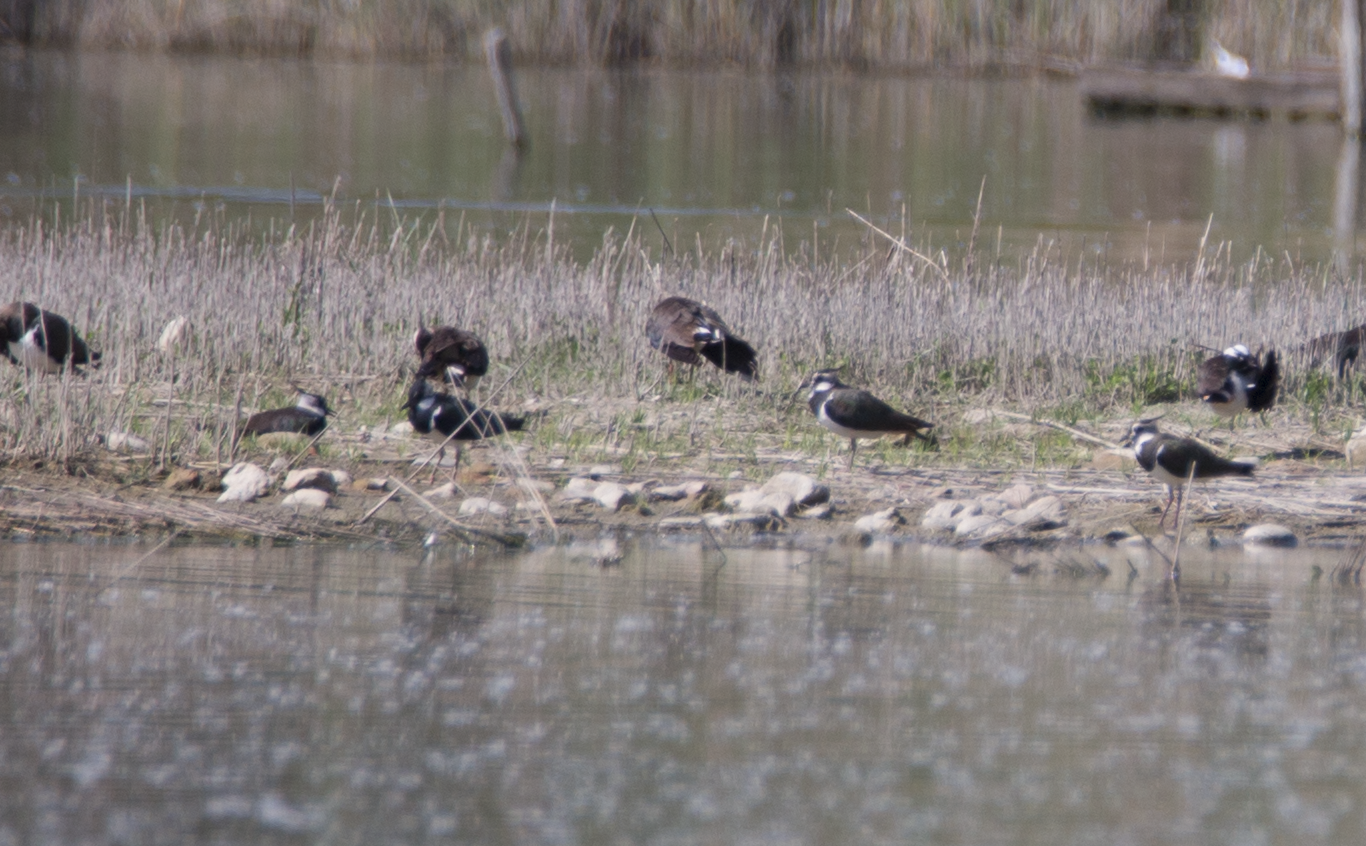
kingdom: Animalia
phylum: Chordata
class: Aves
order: Charadriiformes
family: Charadriidae
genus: Vanellus
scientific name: Vanellus vanellus
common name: Northern lapwing
